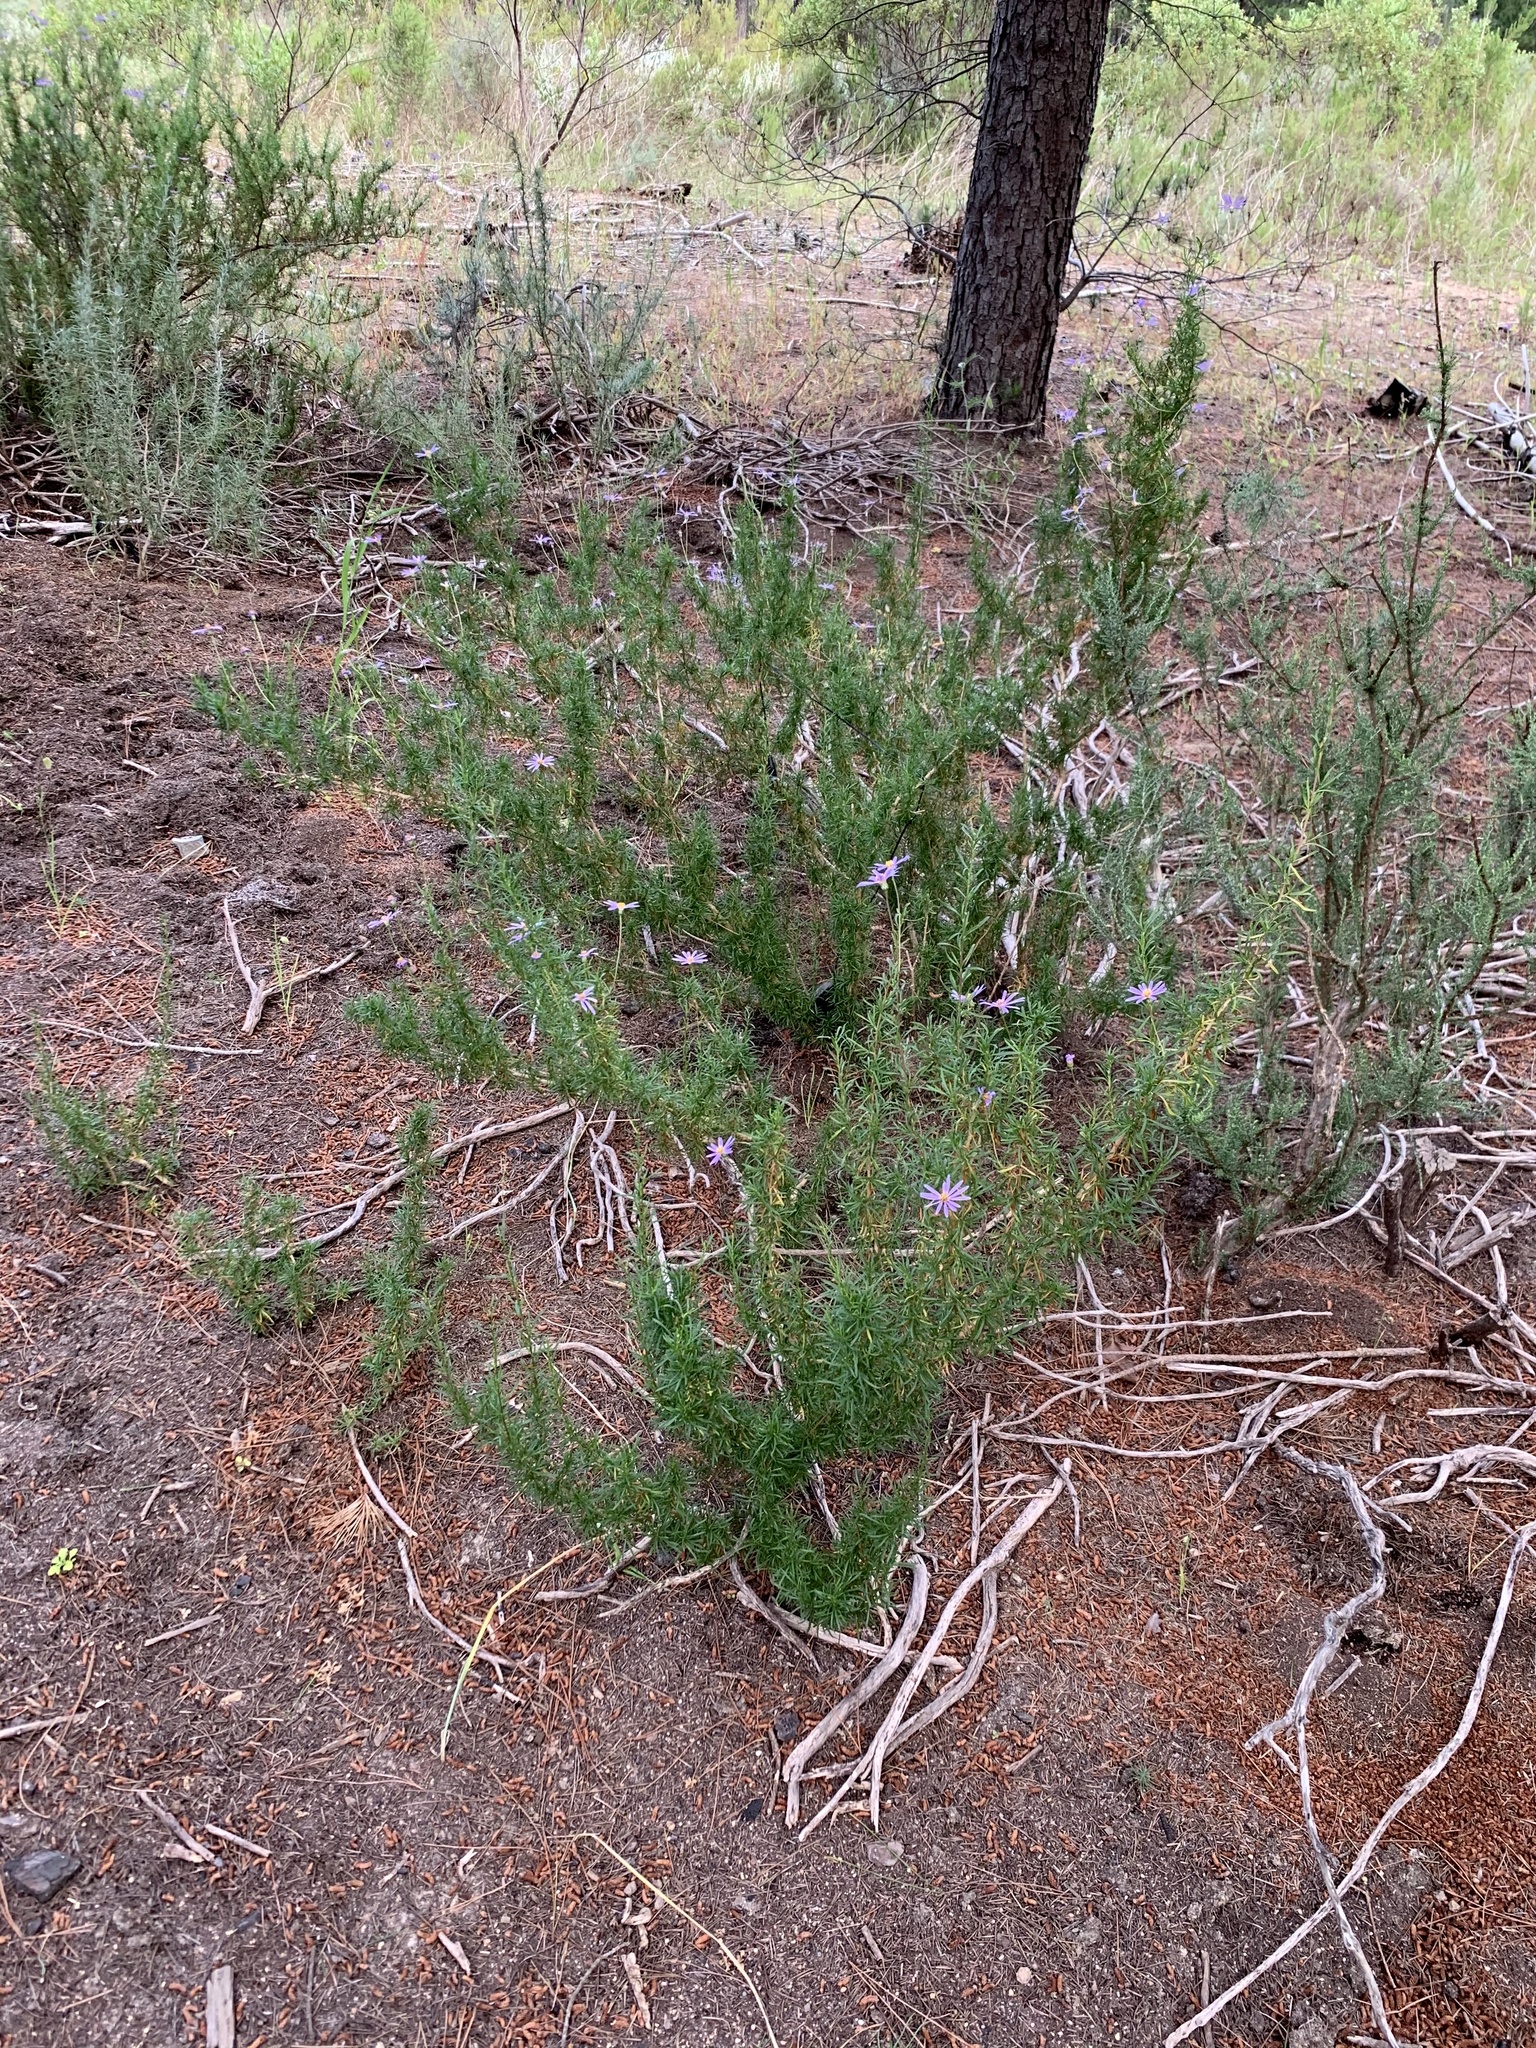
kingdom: Plantae
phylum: Tracheophyta
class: Magnoliopsida
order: Asterales
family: Asteraceae
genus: Felicia
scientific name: Felicia fruticosa
